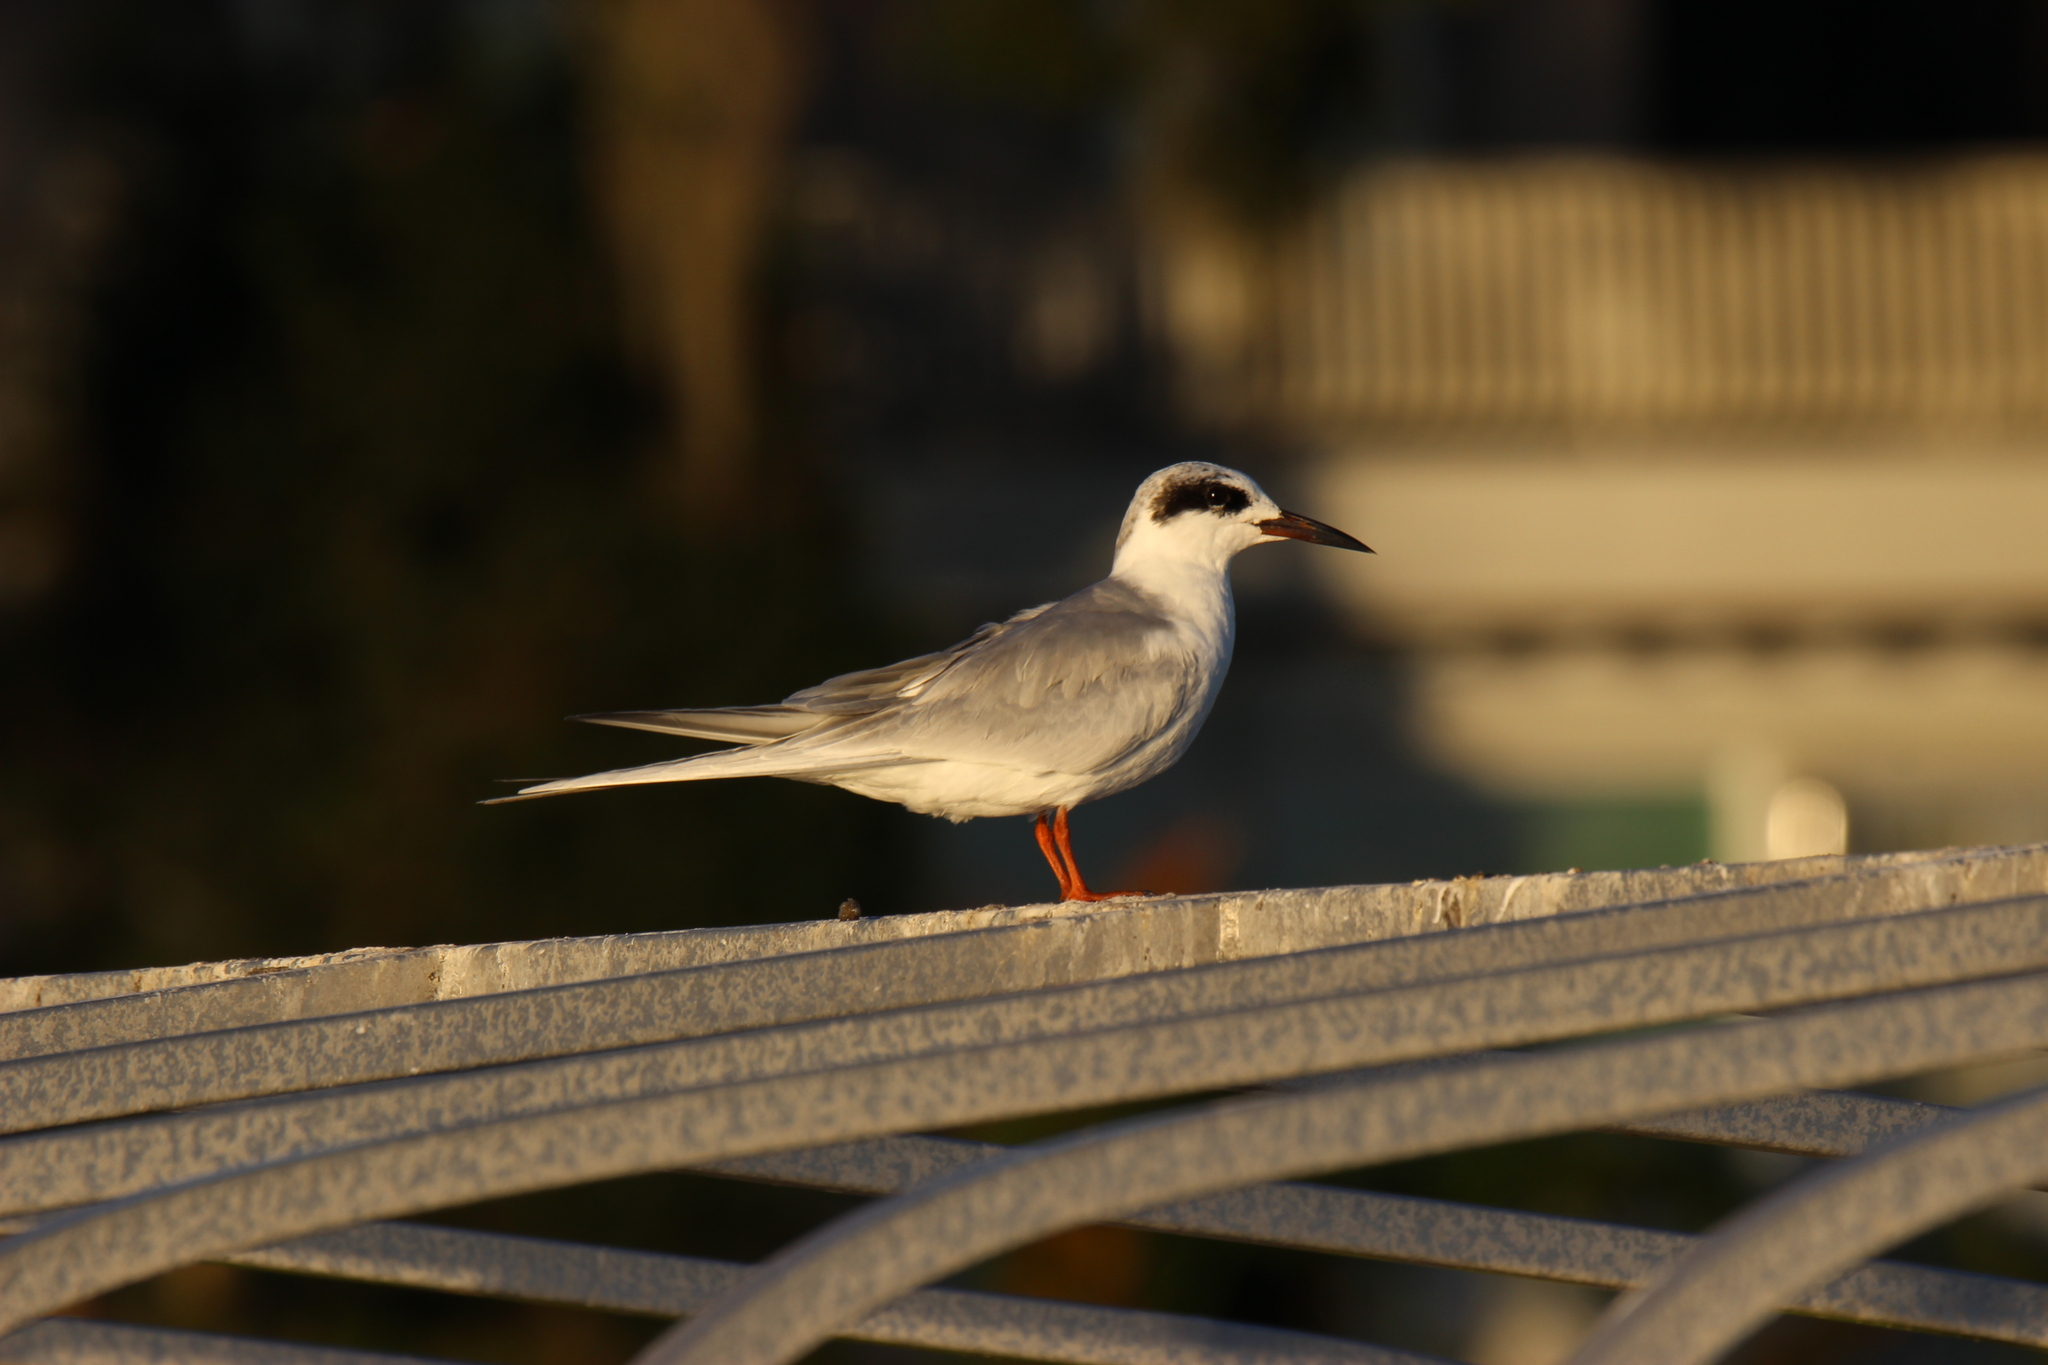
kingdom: Animalia
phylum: Chordata
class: Aves
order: Charadriiformes
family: Laridae
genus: Sterna
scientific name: Sterna forsteri
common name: Forster's tern
